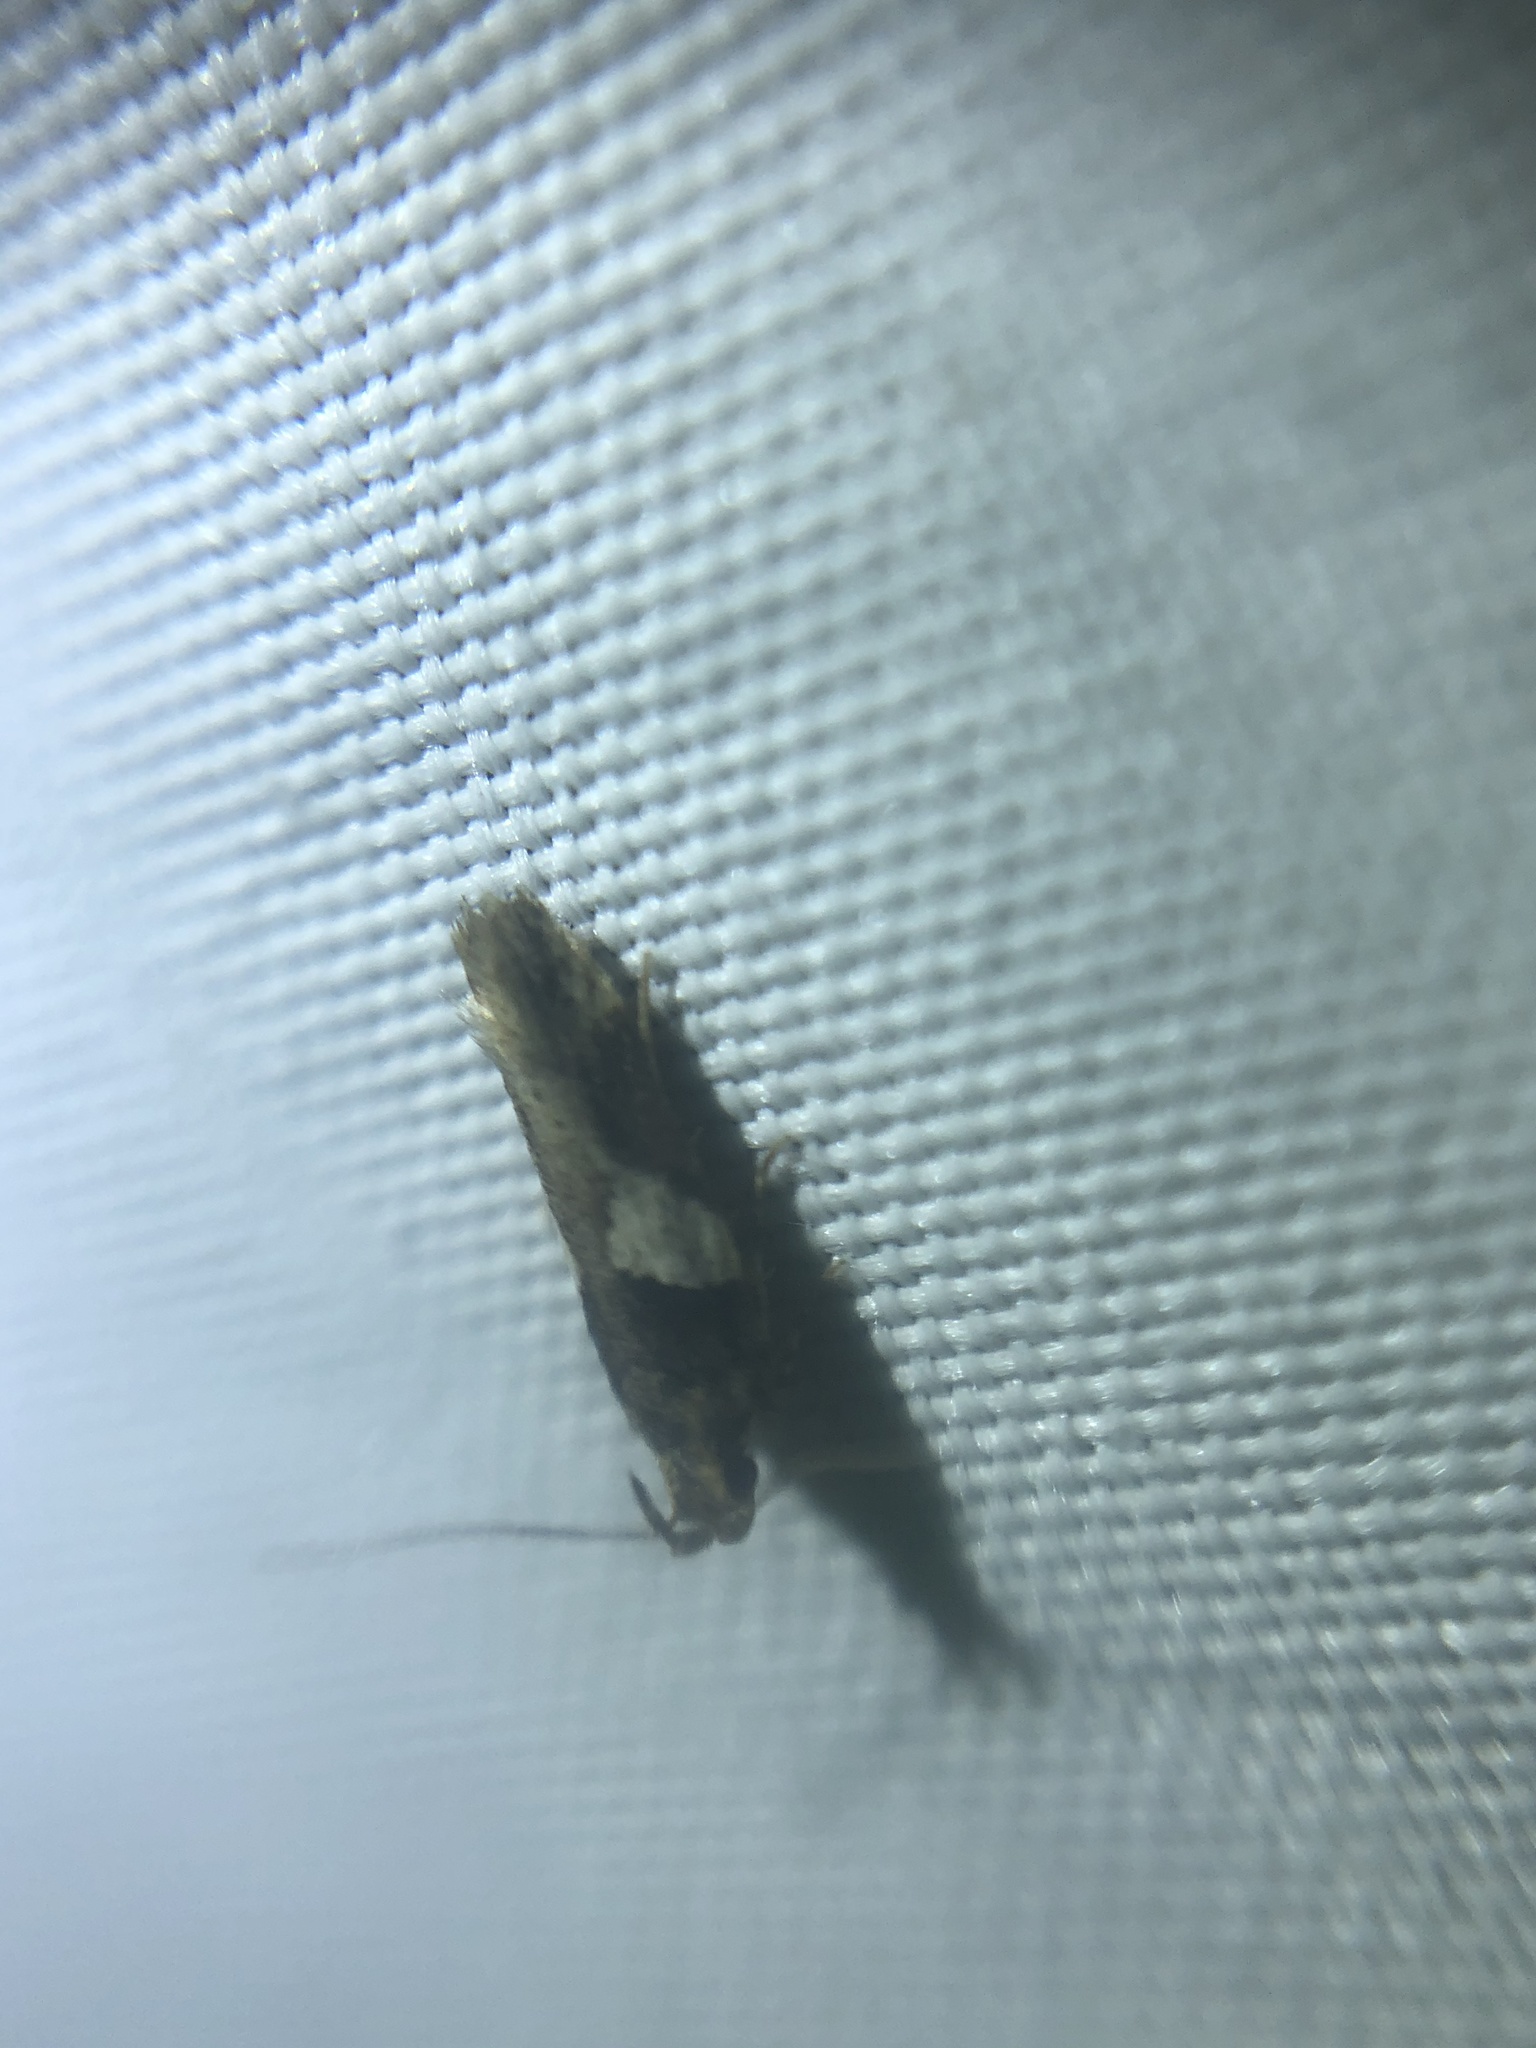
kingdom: Animalia
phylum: Arthropoda
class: Insecta
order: Lepidoptera
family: Gelechiidae
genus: Friseria
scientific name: Friseria acaciella
